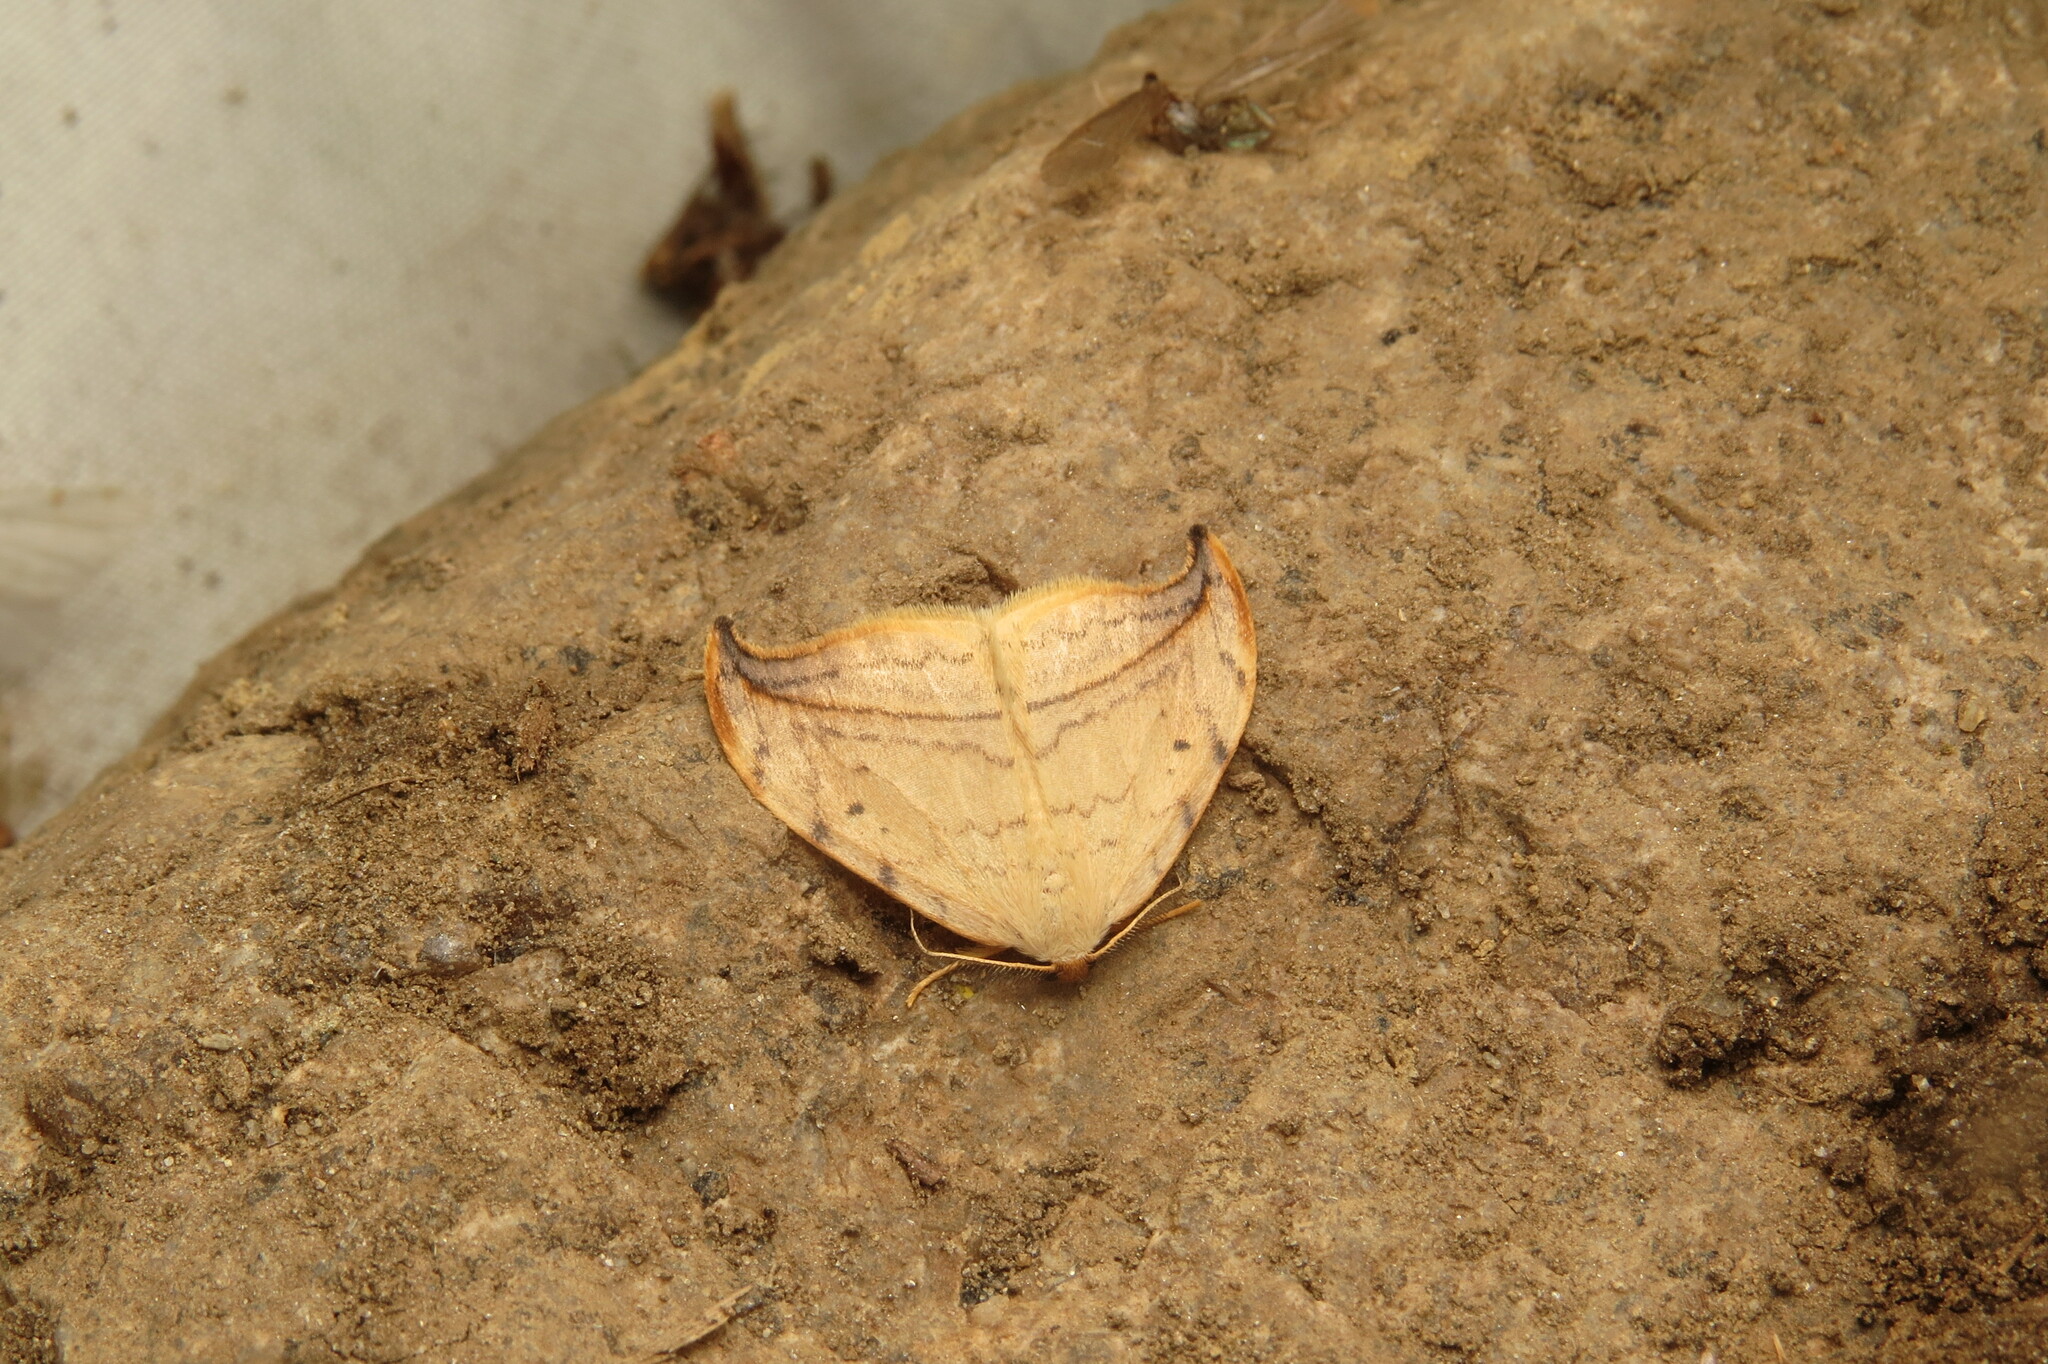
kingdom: Animalia
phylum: Arthropoda
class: Insecta
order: Lepidoptera
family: Drepanidae
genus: Drepana
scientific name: Drepana arcuata
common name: Arched hooktip moth
